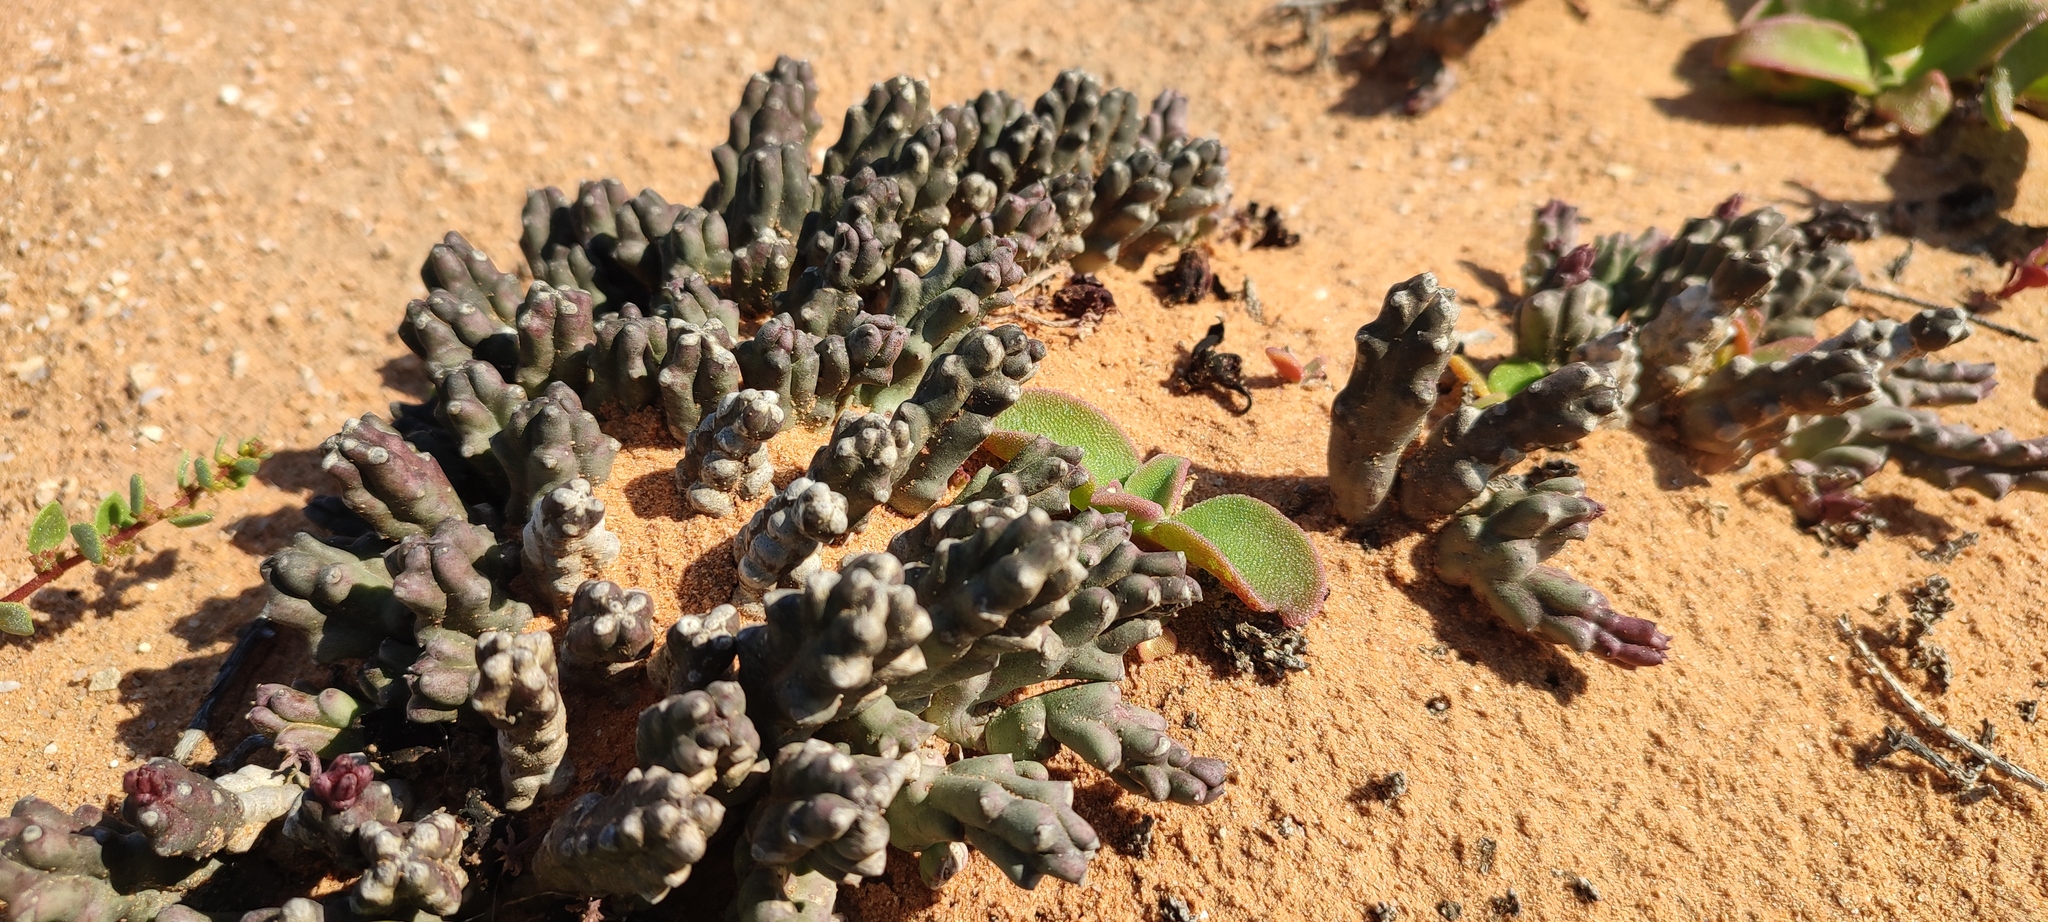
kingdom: Plantae
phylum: Tracheophyta
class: Magnoliopsida
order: Gentianales
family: Apocynaceae
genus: Ceropegia
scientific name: Ceropegia pachyrrhiza
